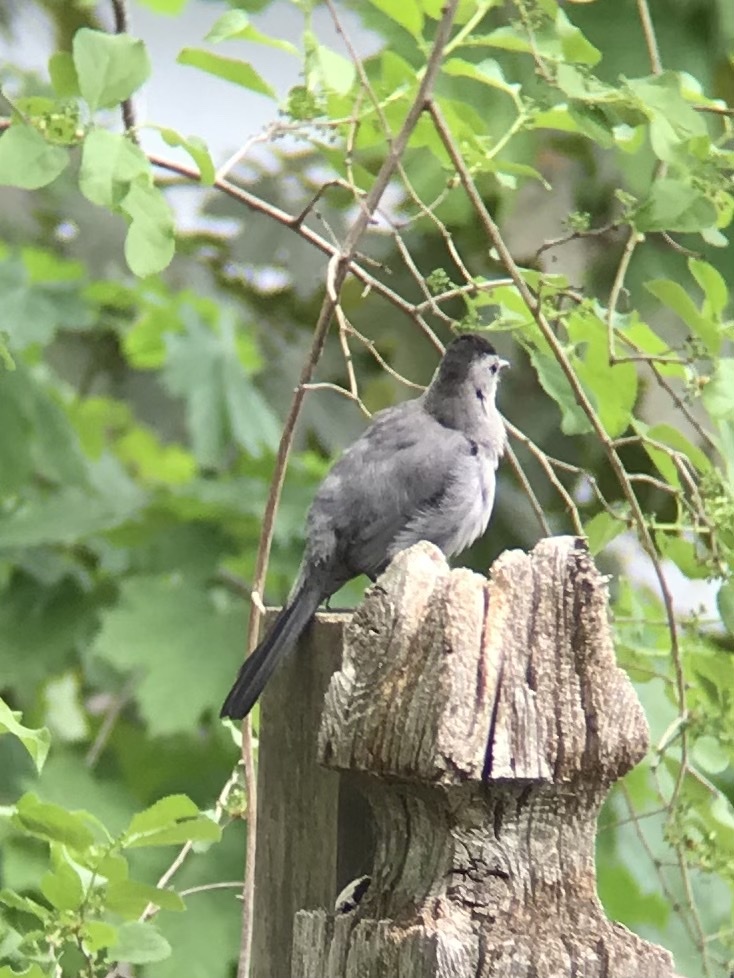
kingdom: Animalia
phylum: Chordata
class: Aves
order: Passeriformes
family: Mimidae
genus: Dumetella
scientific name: Dumetella carolinensis
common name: Gray catbird
